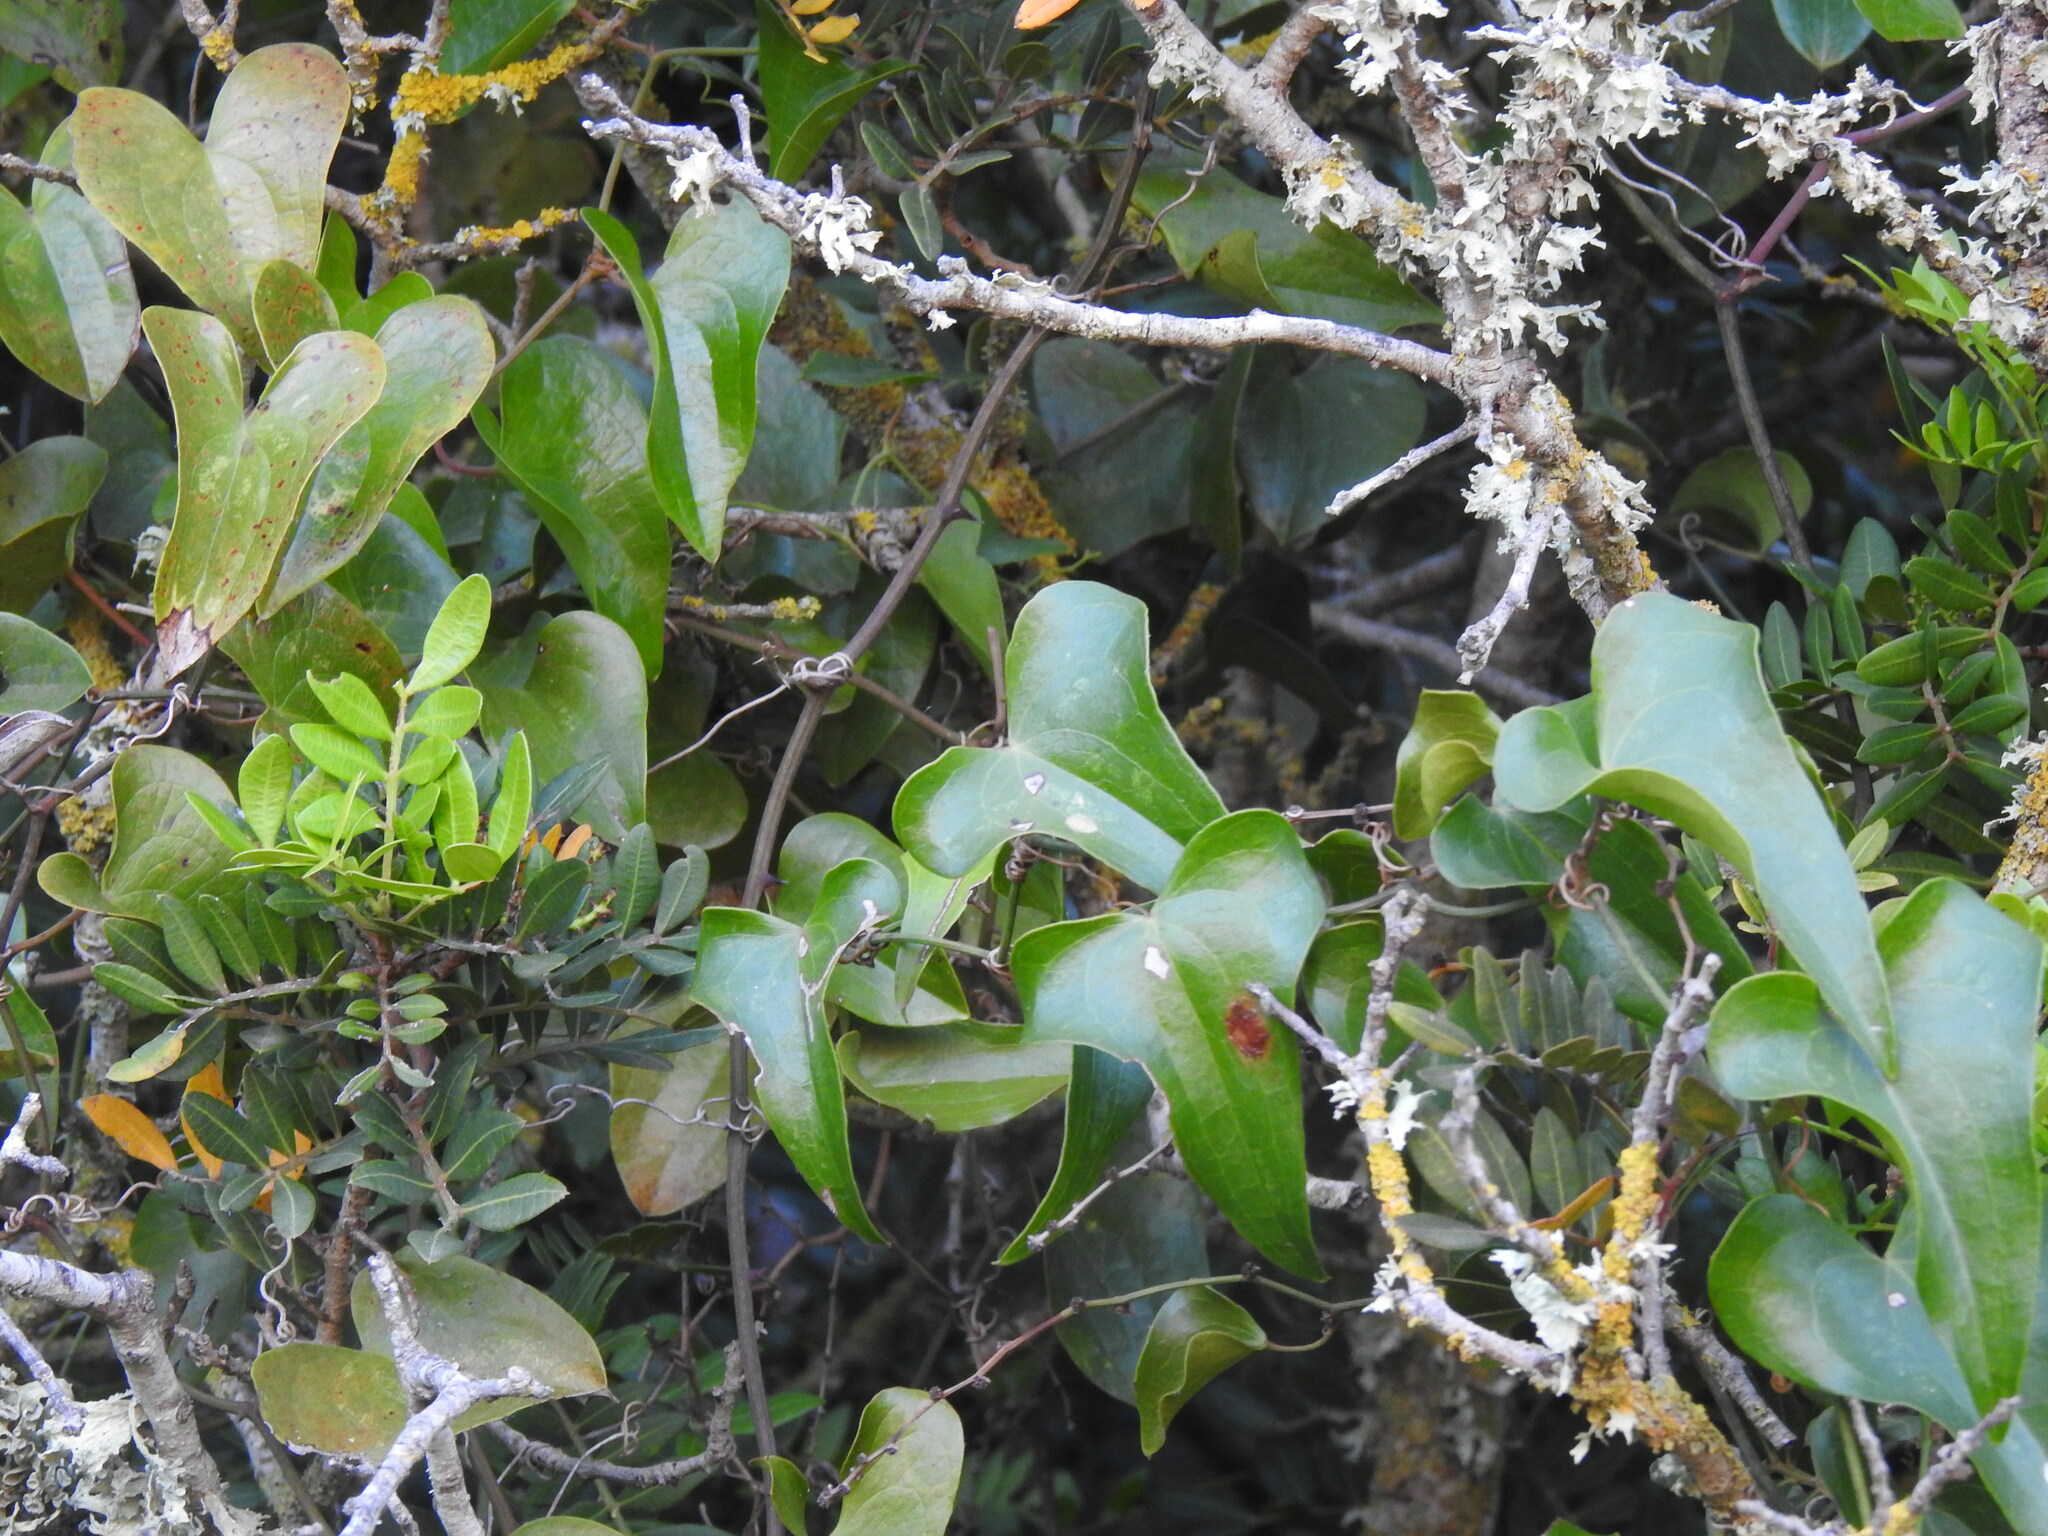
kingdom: Plantae
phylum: Tracheophyta
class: Liliopsida
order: Liliales
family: Smilacaceae
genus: Smilax
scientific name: Smilax aspera
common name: Common smilax
